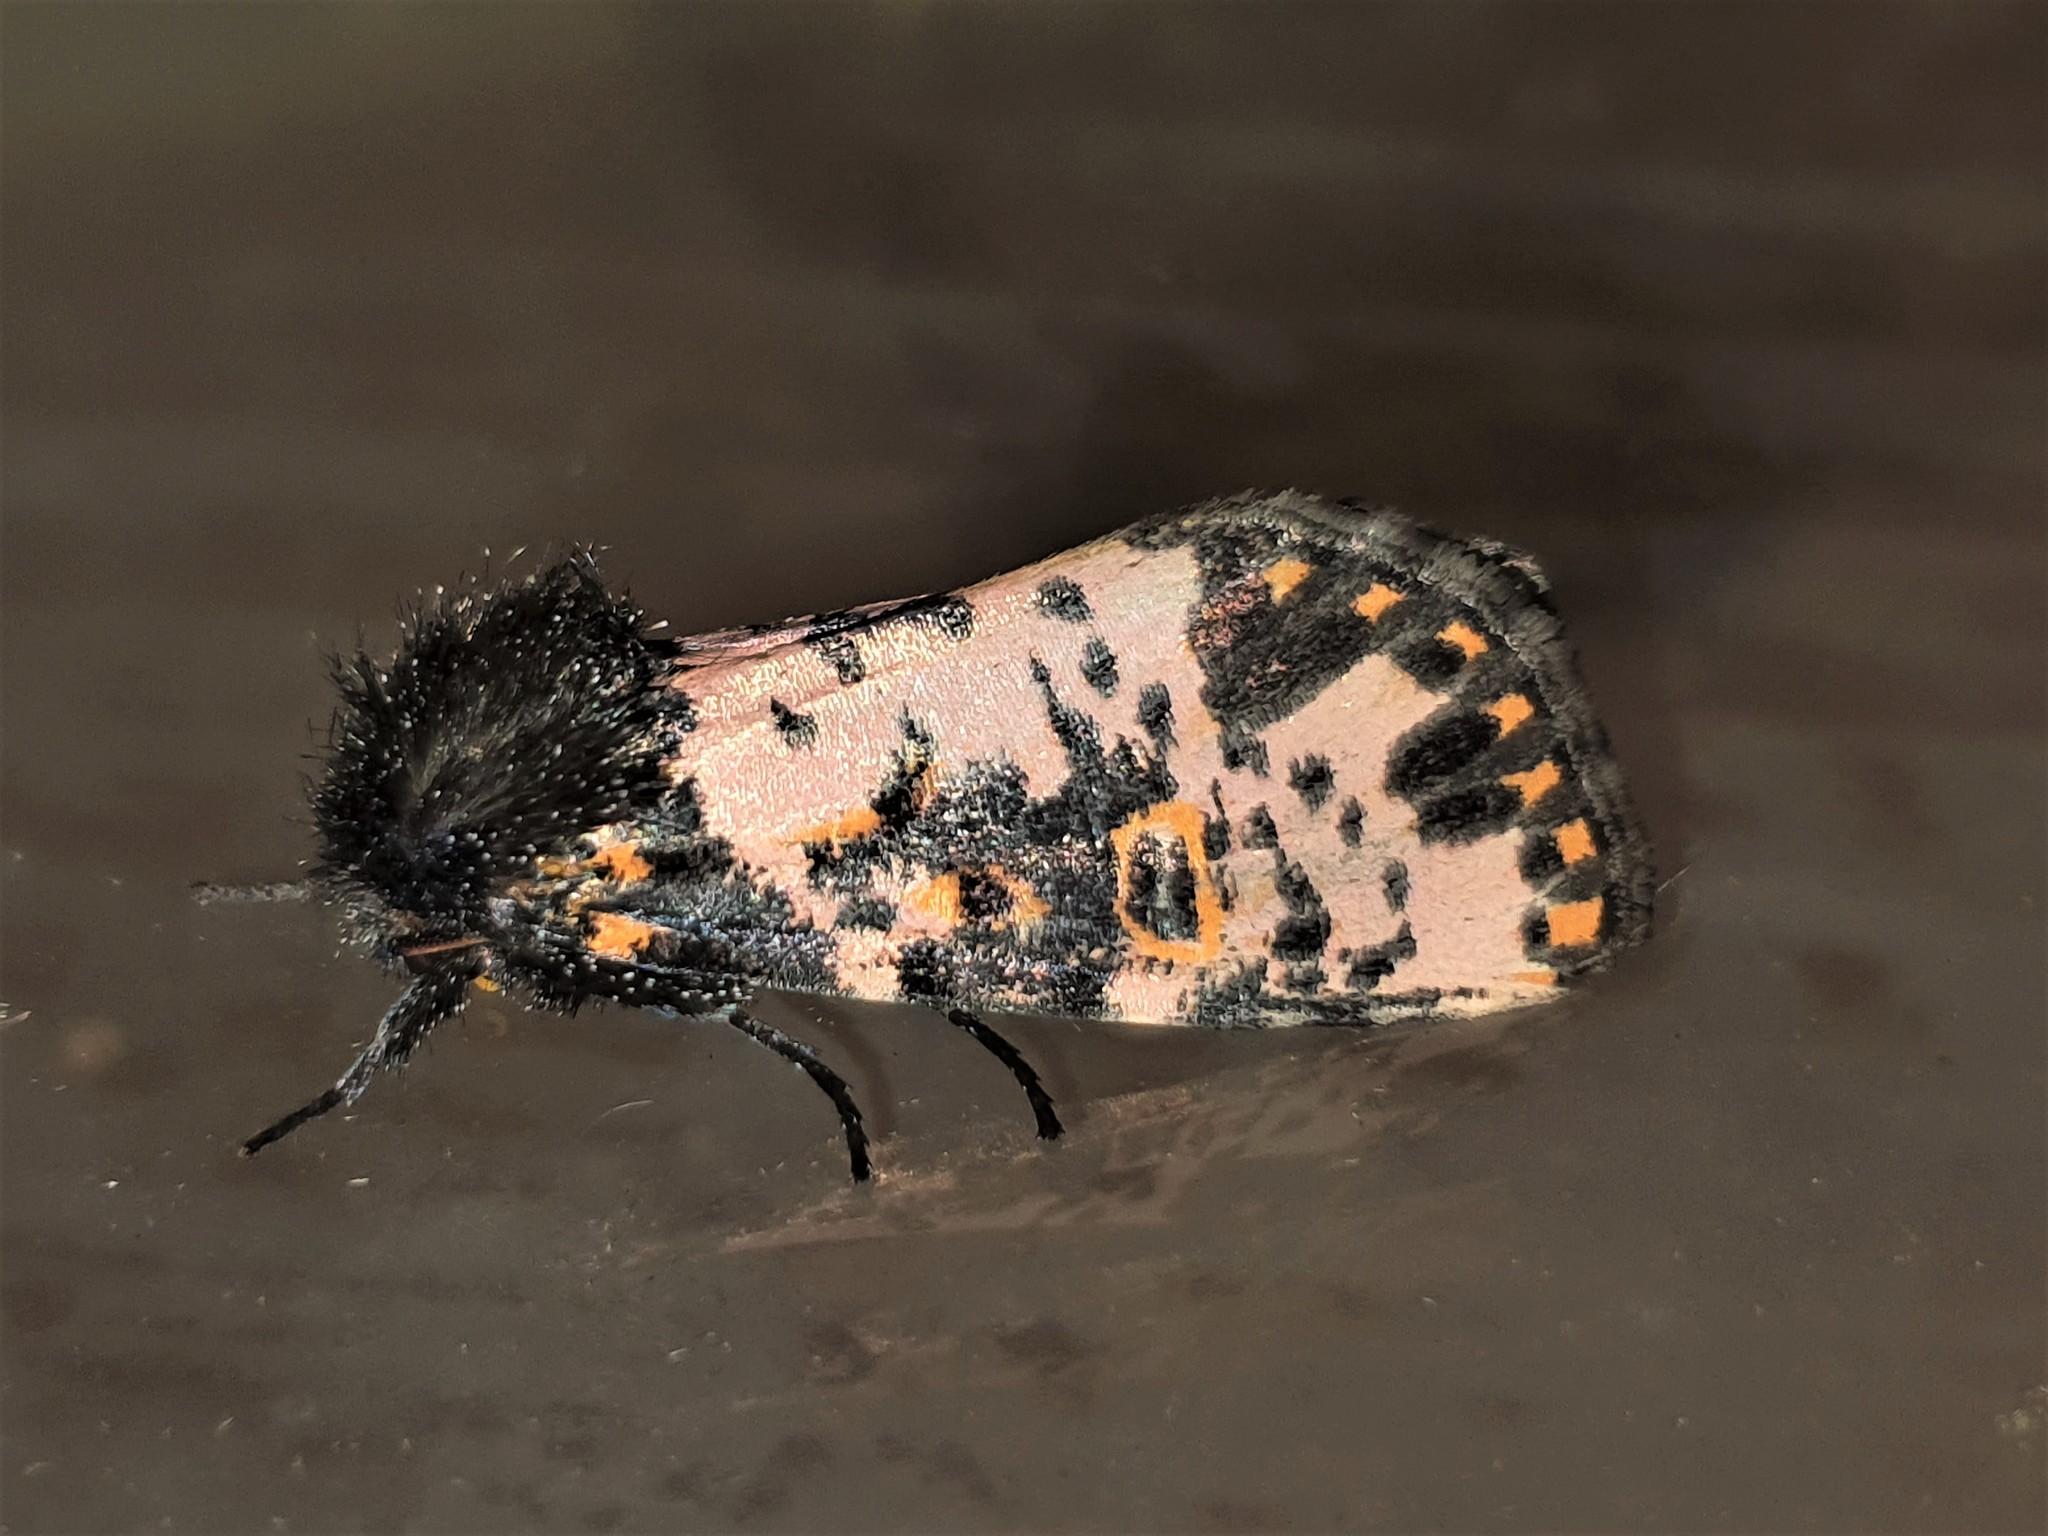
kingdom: Animalia
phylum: Arthropoda
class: Insecta
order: Lepidoptera
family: Noctuidae
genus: Xanthopastis
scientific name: Xanthopastis timais
